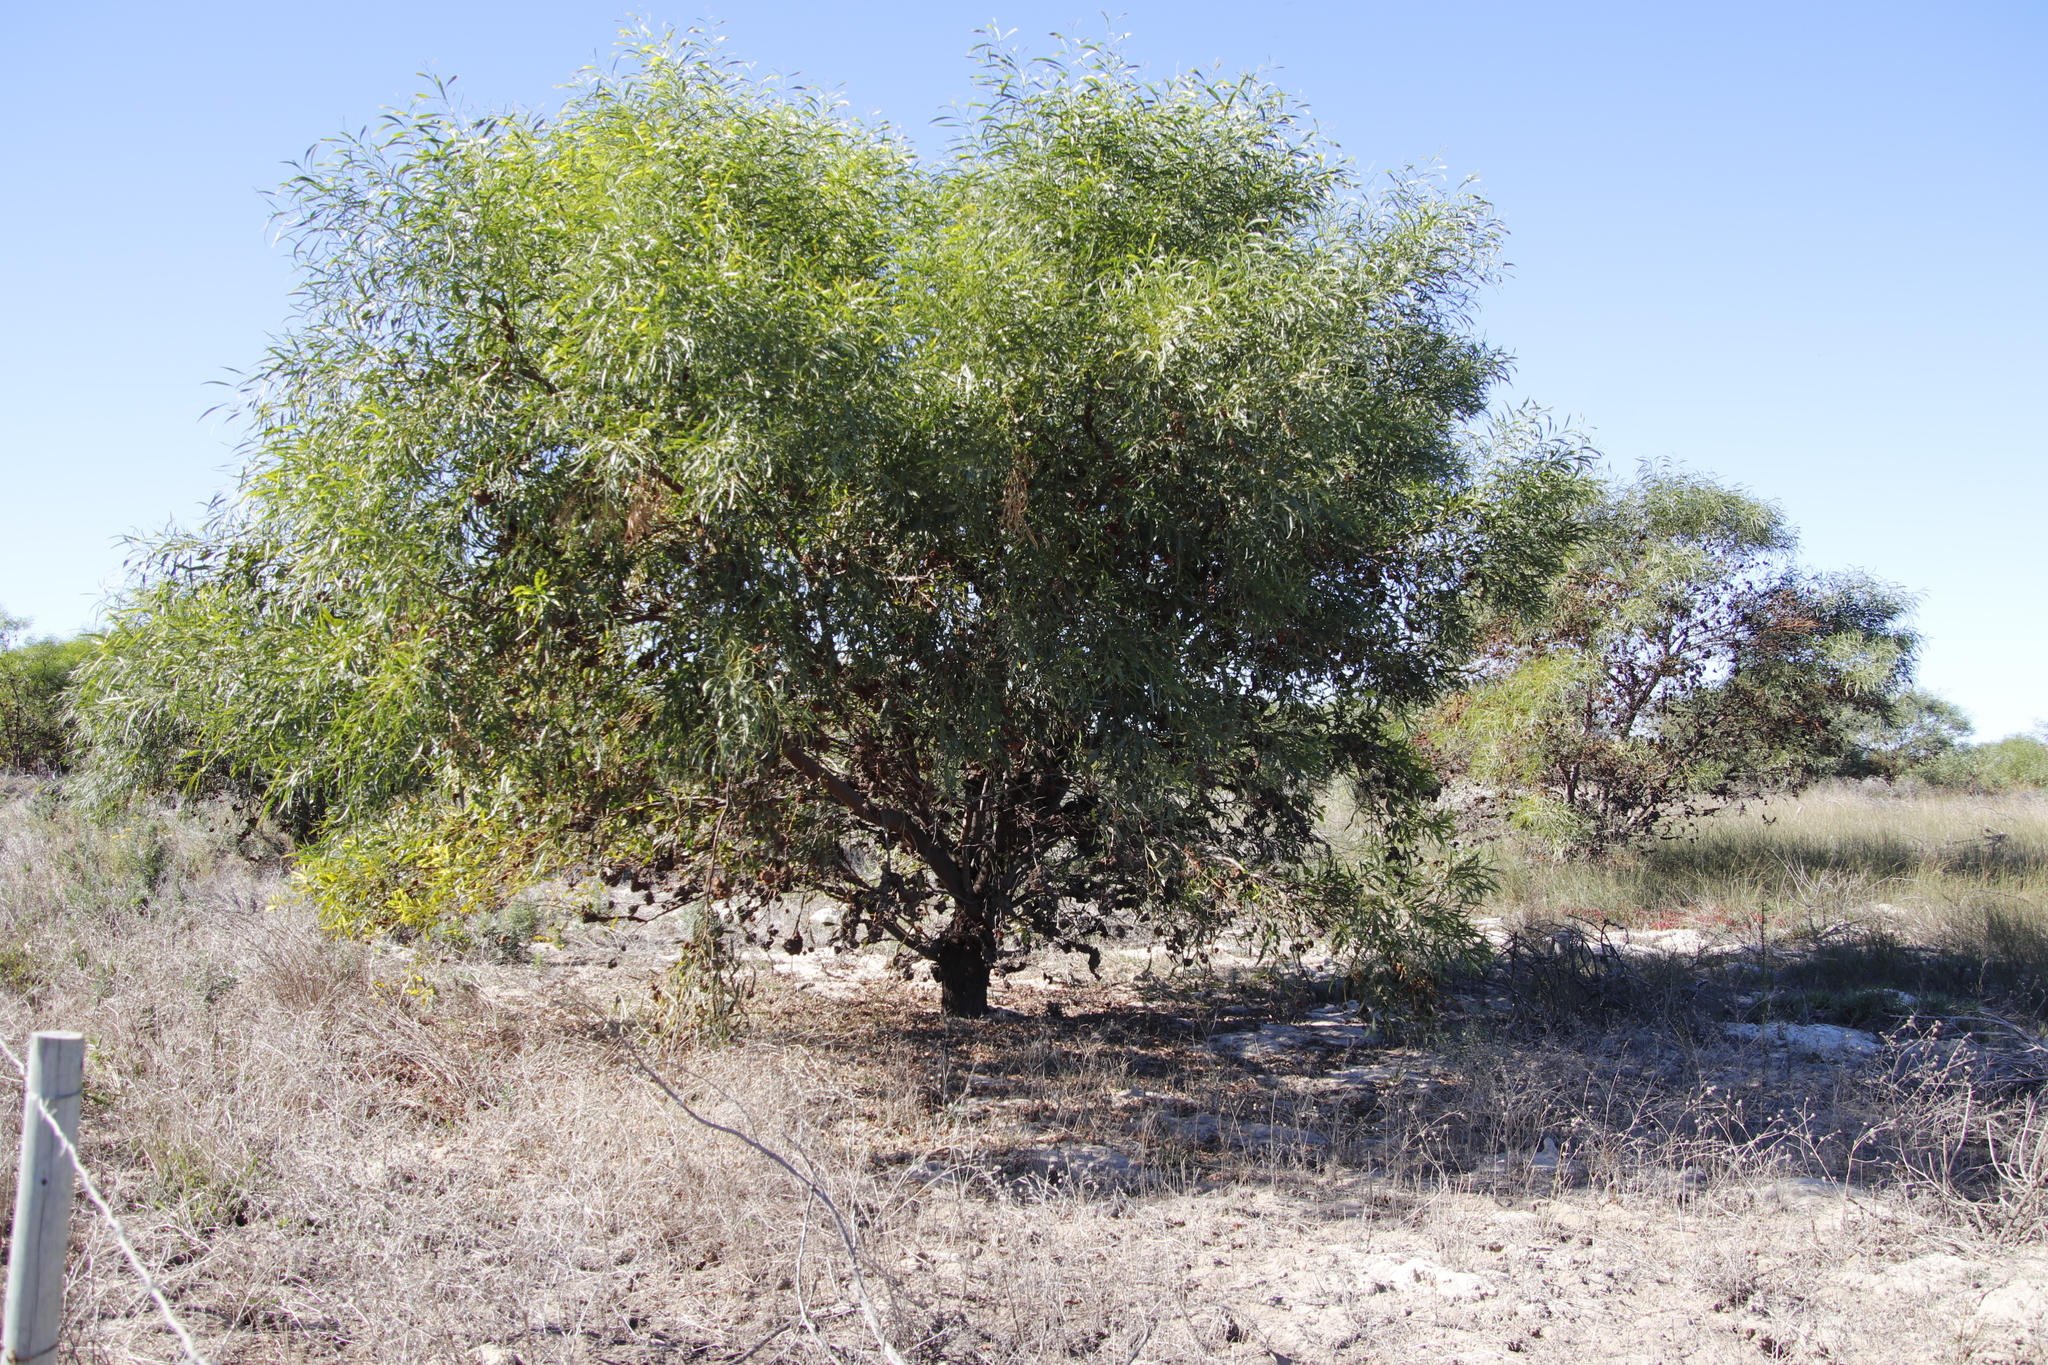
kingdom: Plantae
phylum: Tracheophyta
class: Magnoliopsida
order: Fabales
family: Fabaceae
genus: Acacia
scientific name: Acacia saligna
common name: Orange wattle
